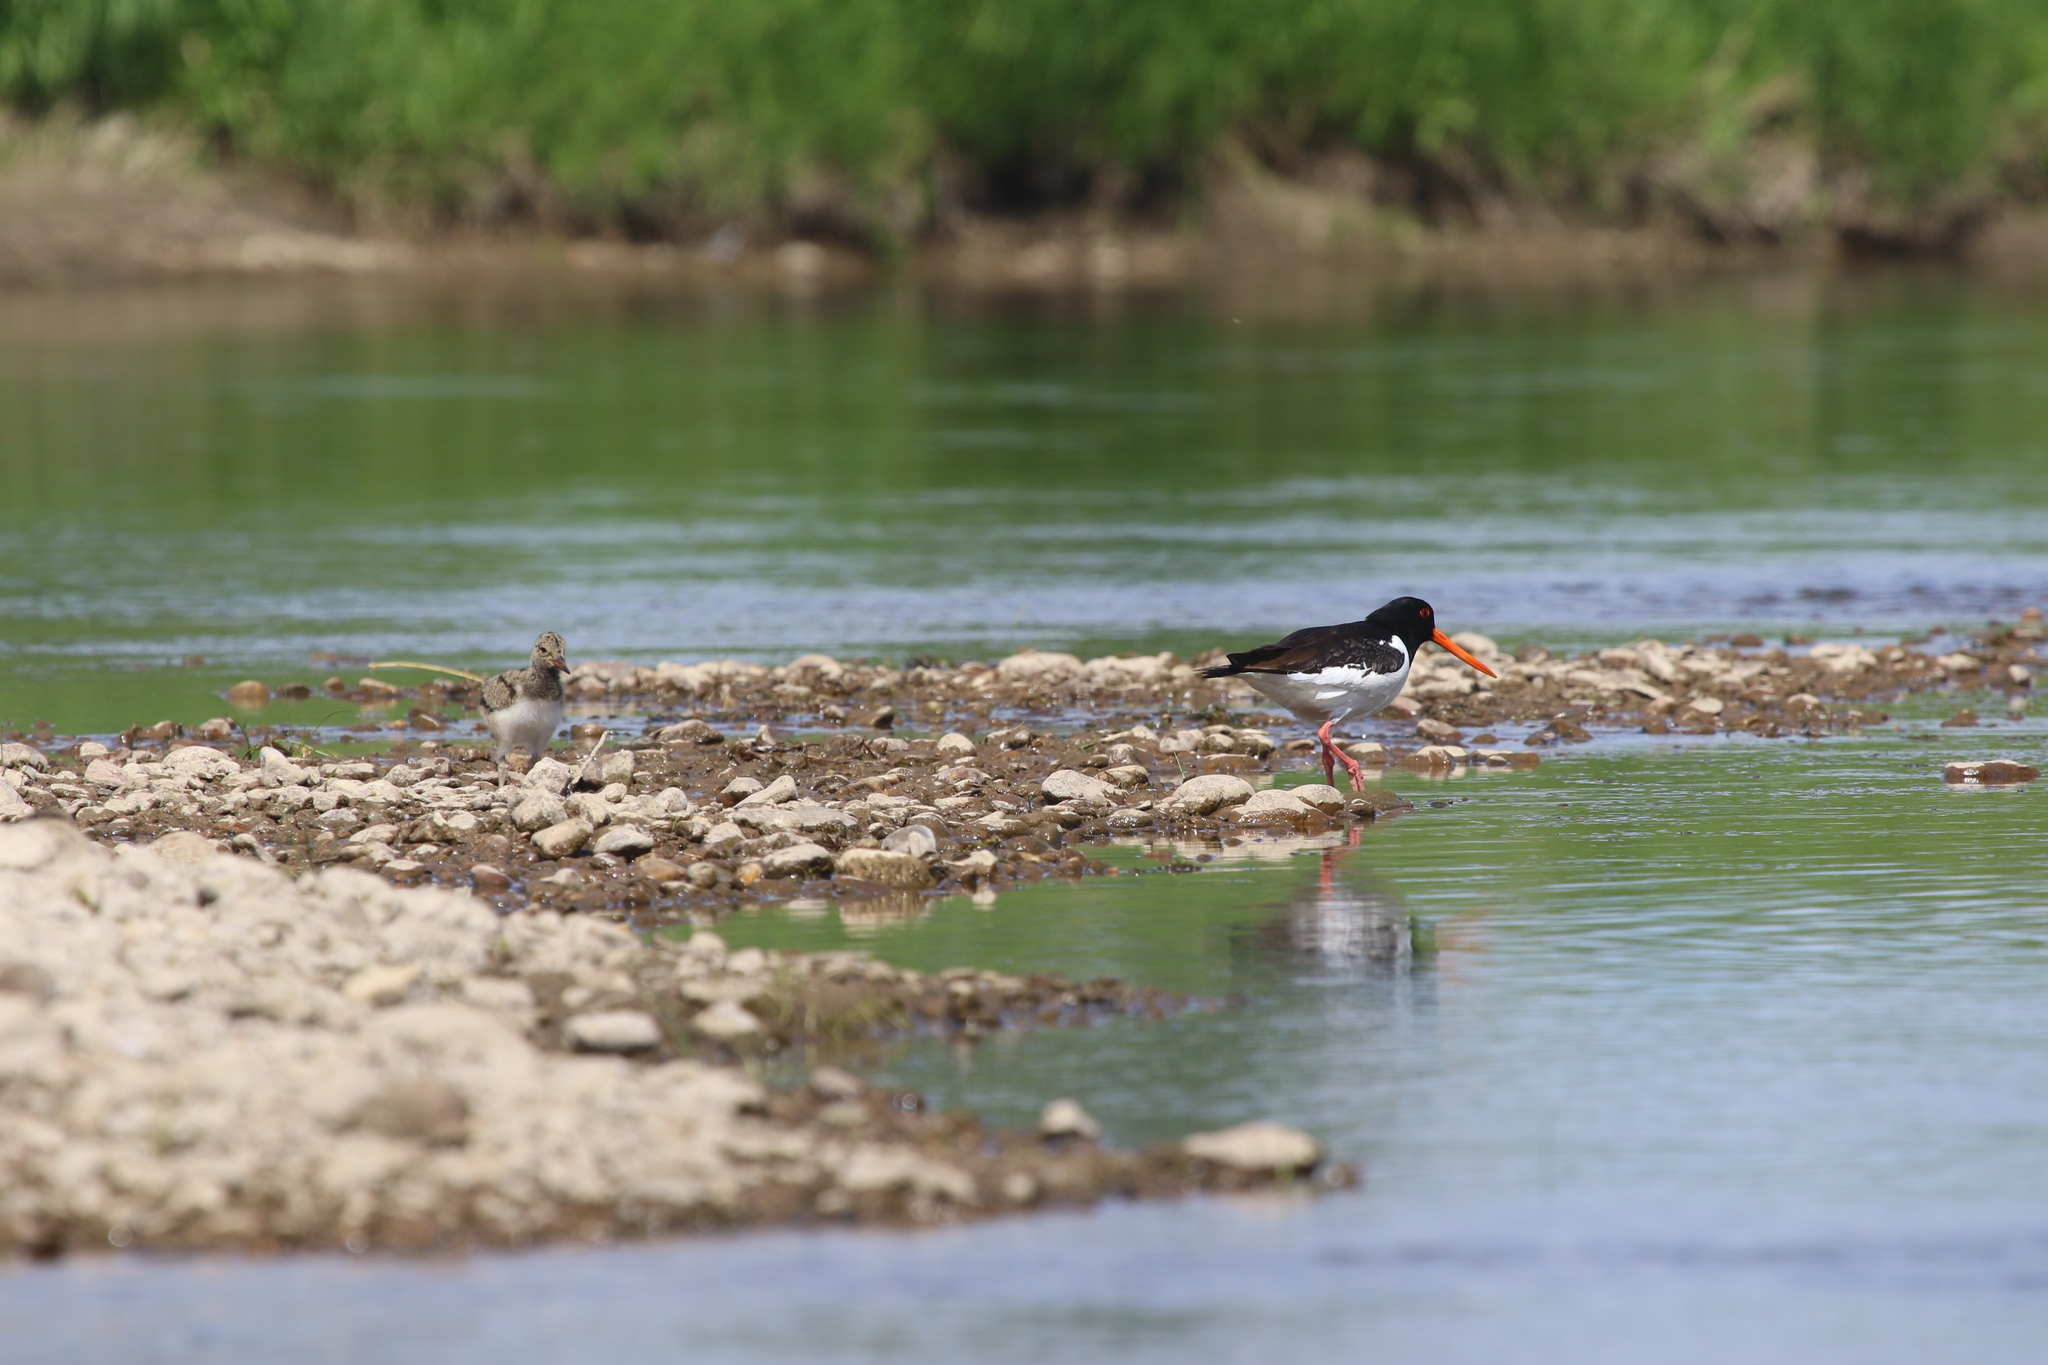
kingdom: Animalia
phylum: Chordata
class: Aves
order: Charadriiformes
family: Haematopodidae
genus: Haematopus
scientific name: Haematopus ostralegus
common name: Eurasian oystercatcher
